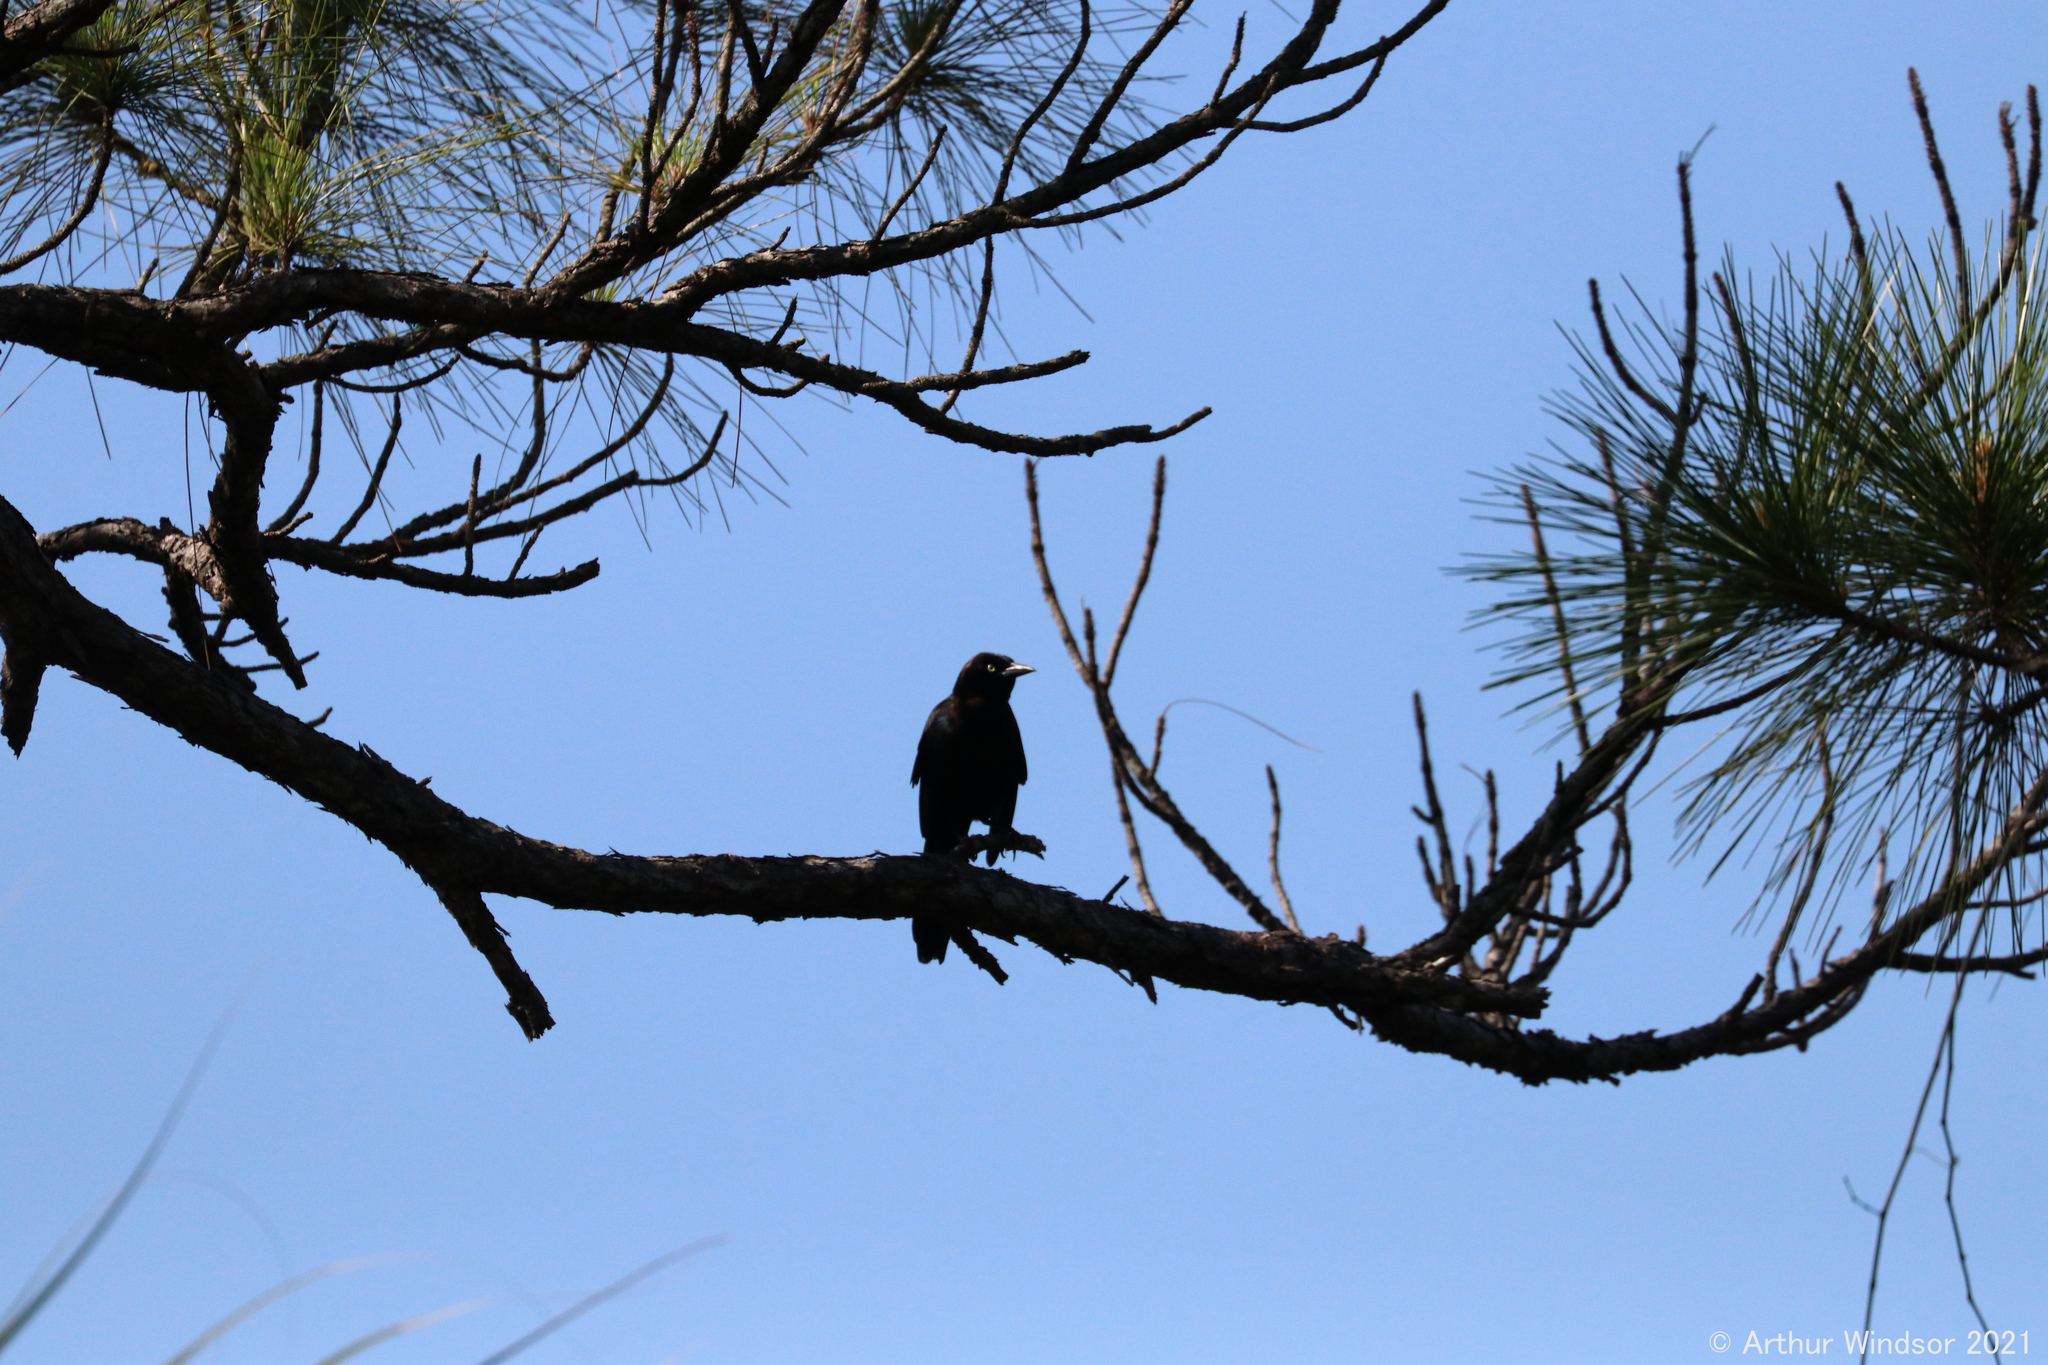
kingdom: Animalia
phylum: Chordata
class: Aves
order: Passeriformes
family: Icteridae
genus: Quiscalus
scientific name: Quiscalus quiscula
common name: Common grackle
